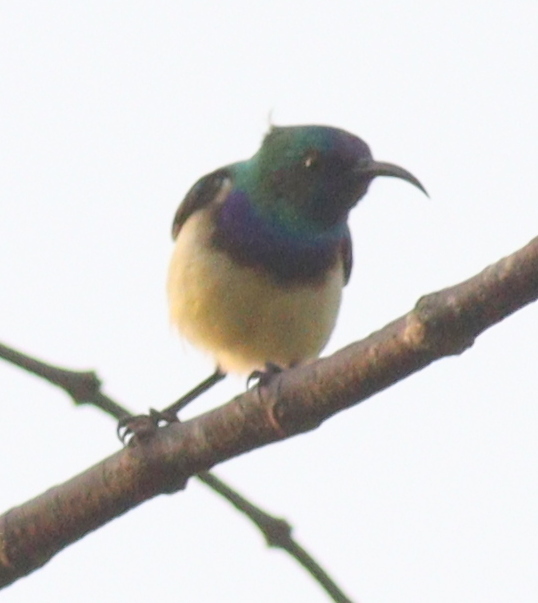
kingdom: Animalia
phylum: Chordata
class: Aves
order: Passeriformes
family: Nectariniidae
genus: Cinnyris
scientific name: Cinnyris venustus
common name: Variable sunbird
